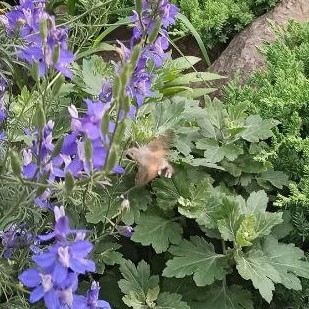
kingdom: Animalia
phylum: Arthropoda
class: Insecta
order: Lepidoptera
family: Sphingidae
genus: Macroglossum
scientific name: Macroglossum stellatarum
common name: Humming-bird hawk-moth
